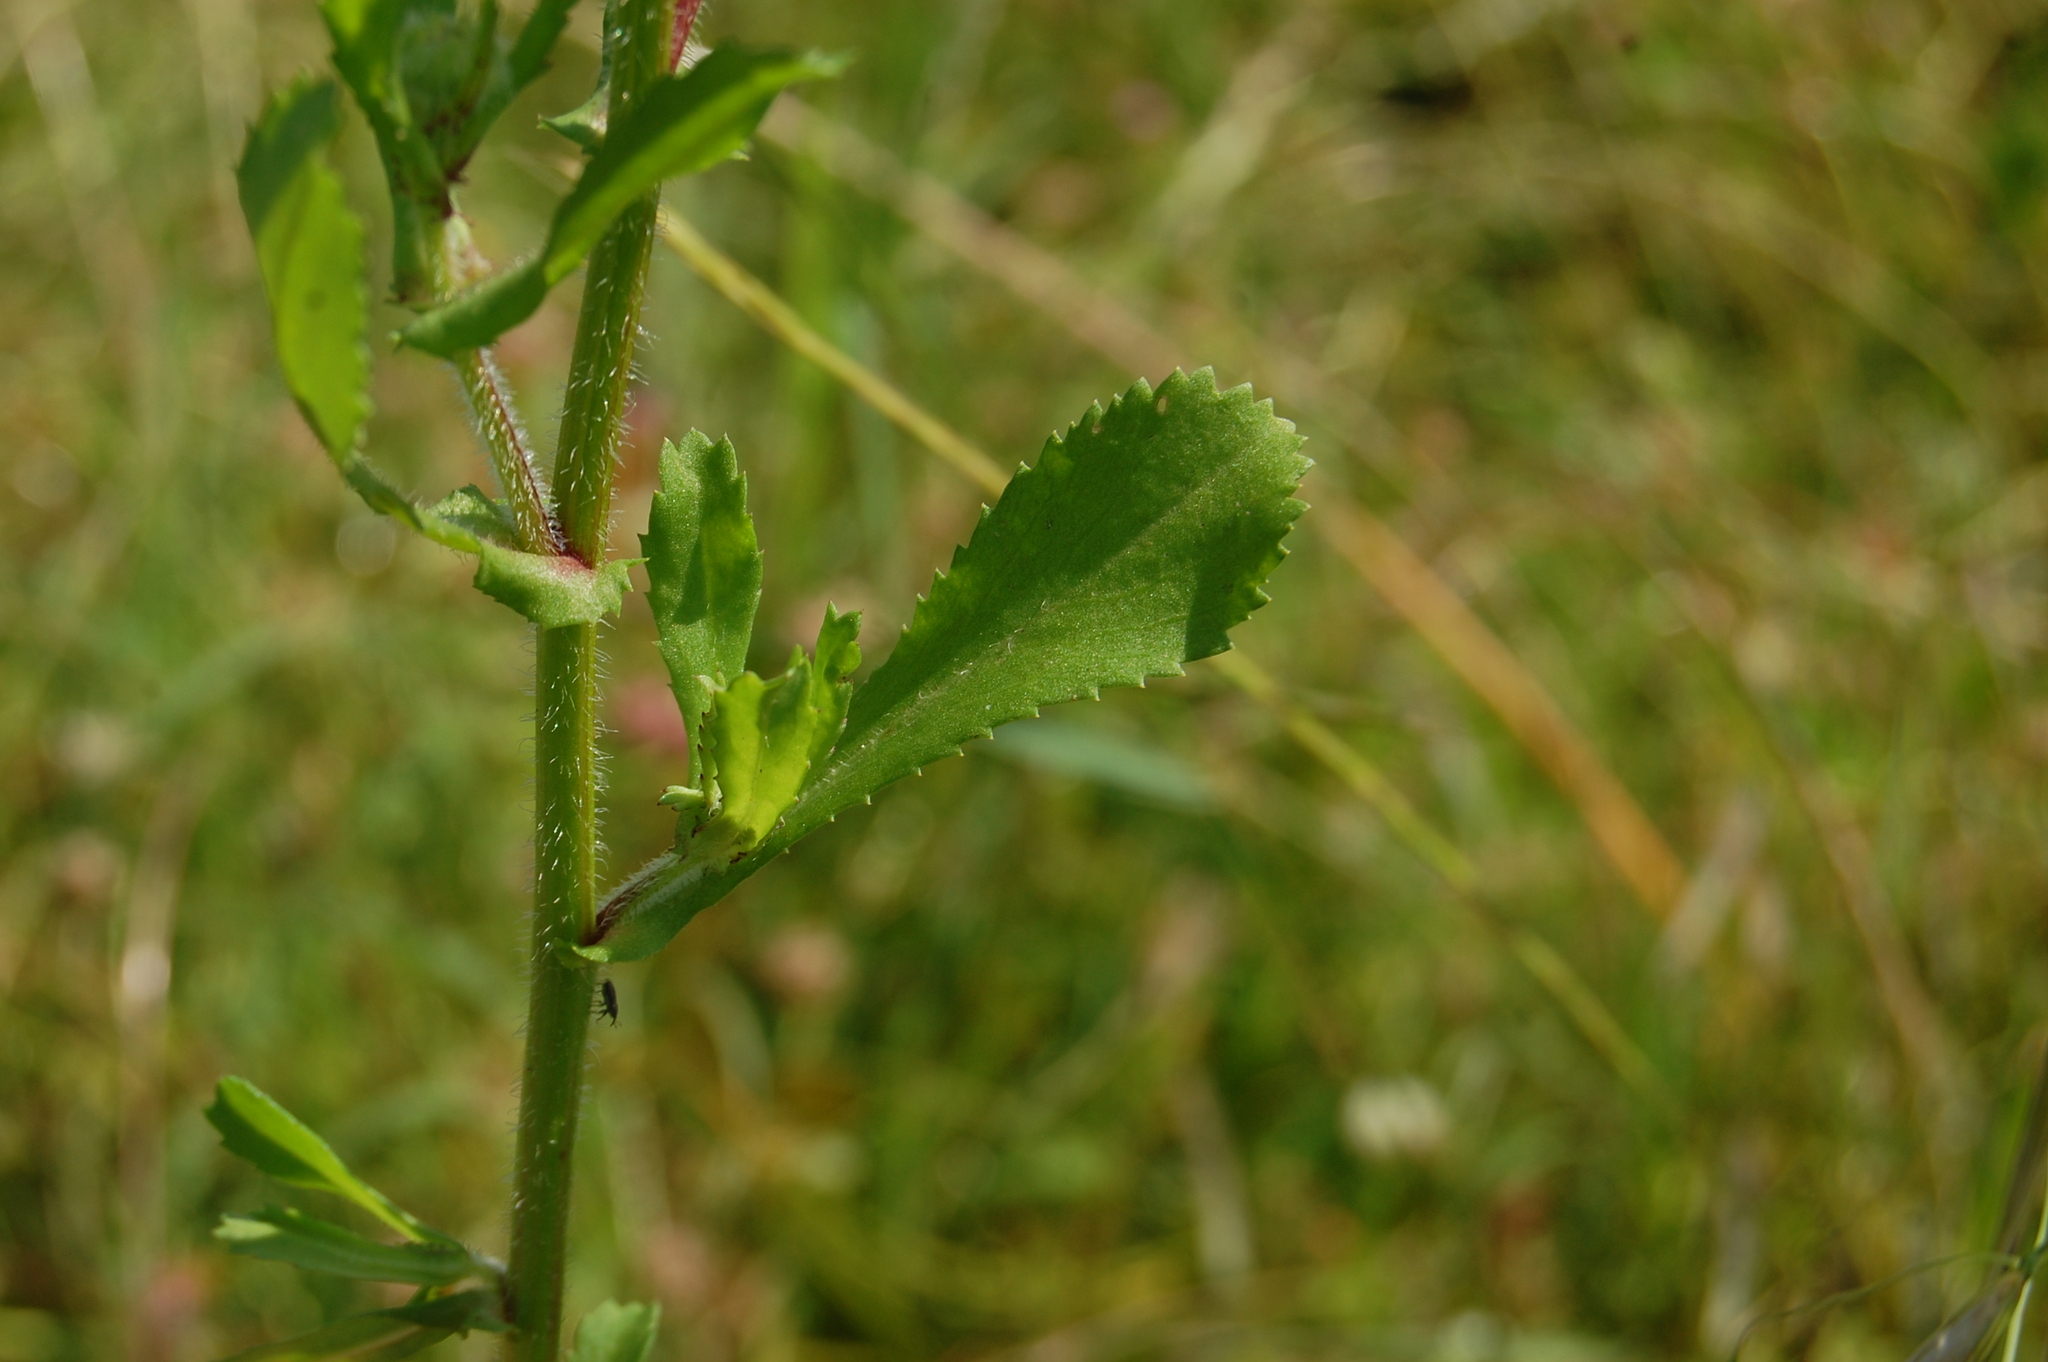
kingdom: Plantae
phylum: Tracheophyta
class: Magnoliopsida
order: Asterales
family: Asteraceae
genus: Coleostephus
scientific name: Coleostephus myconis
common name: Mediterranean marigold
